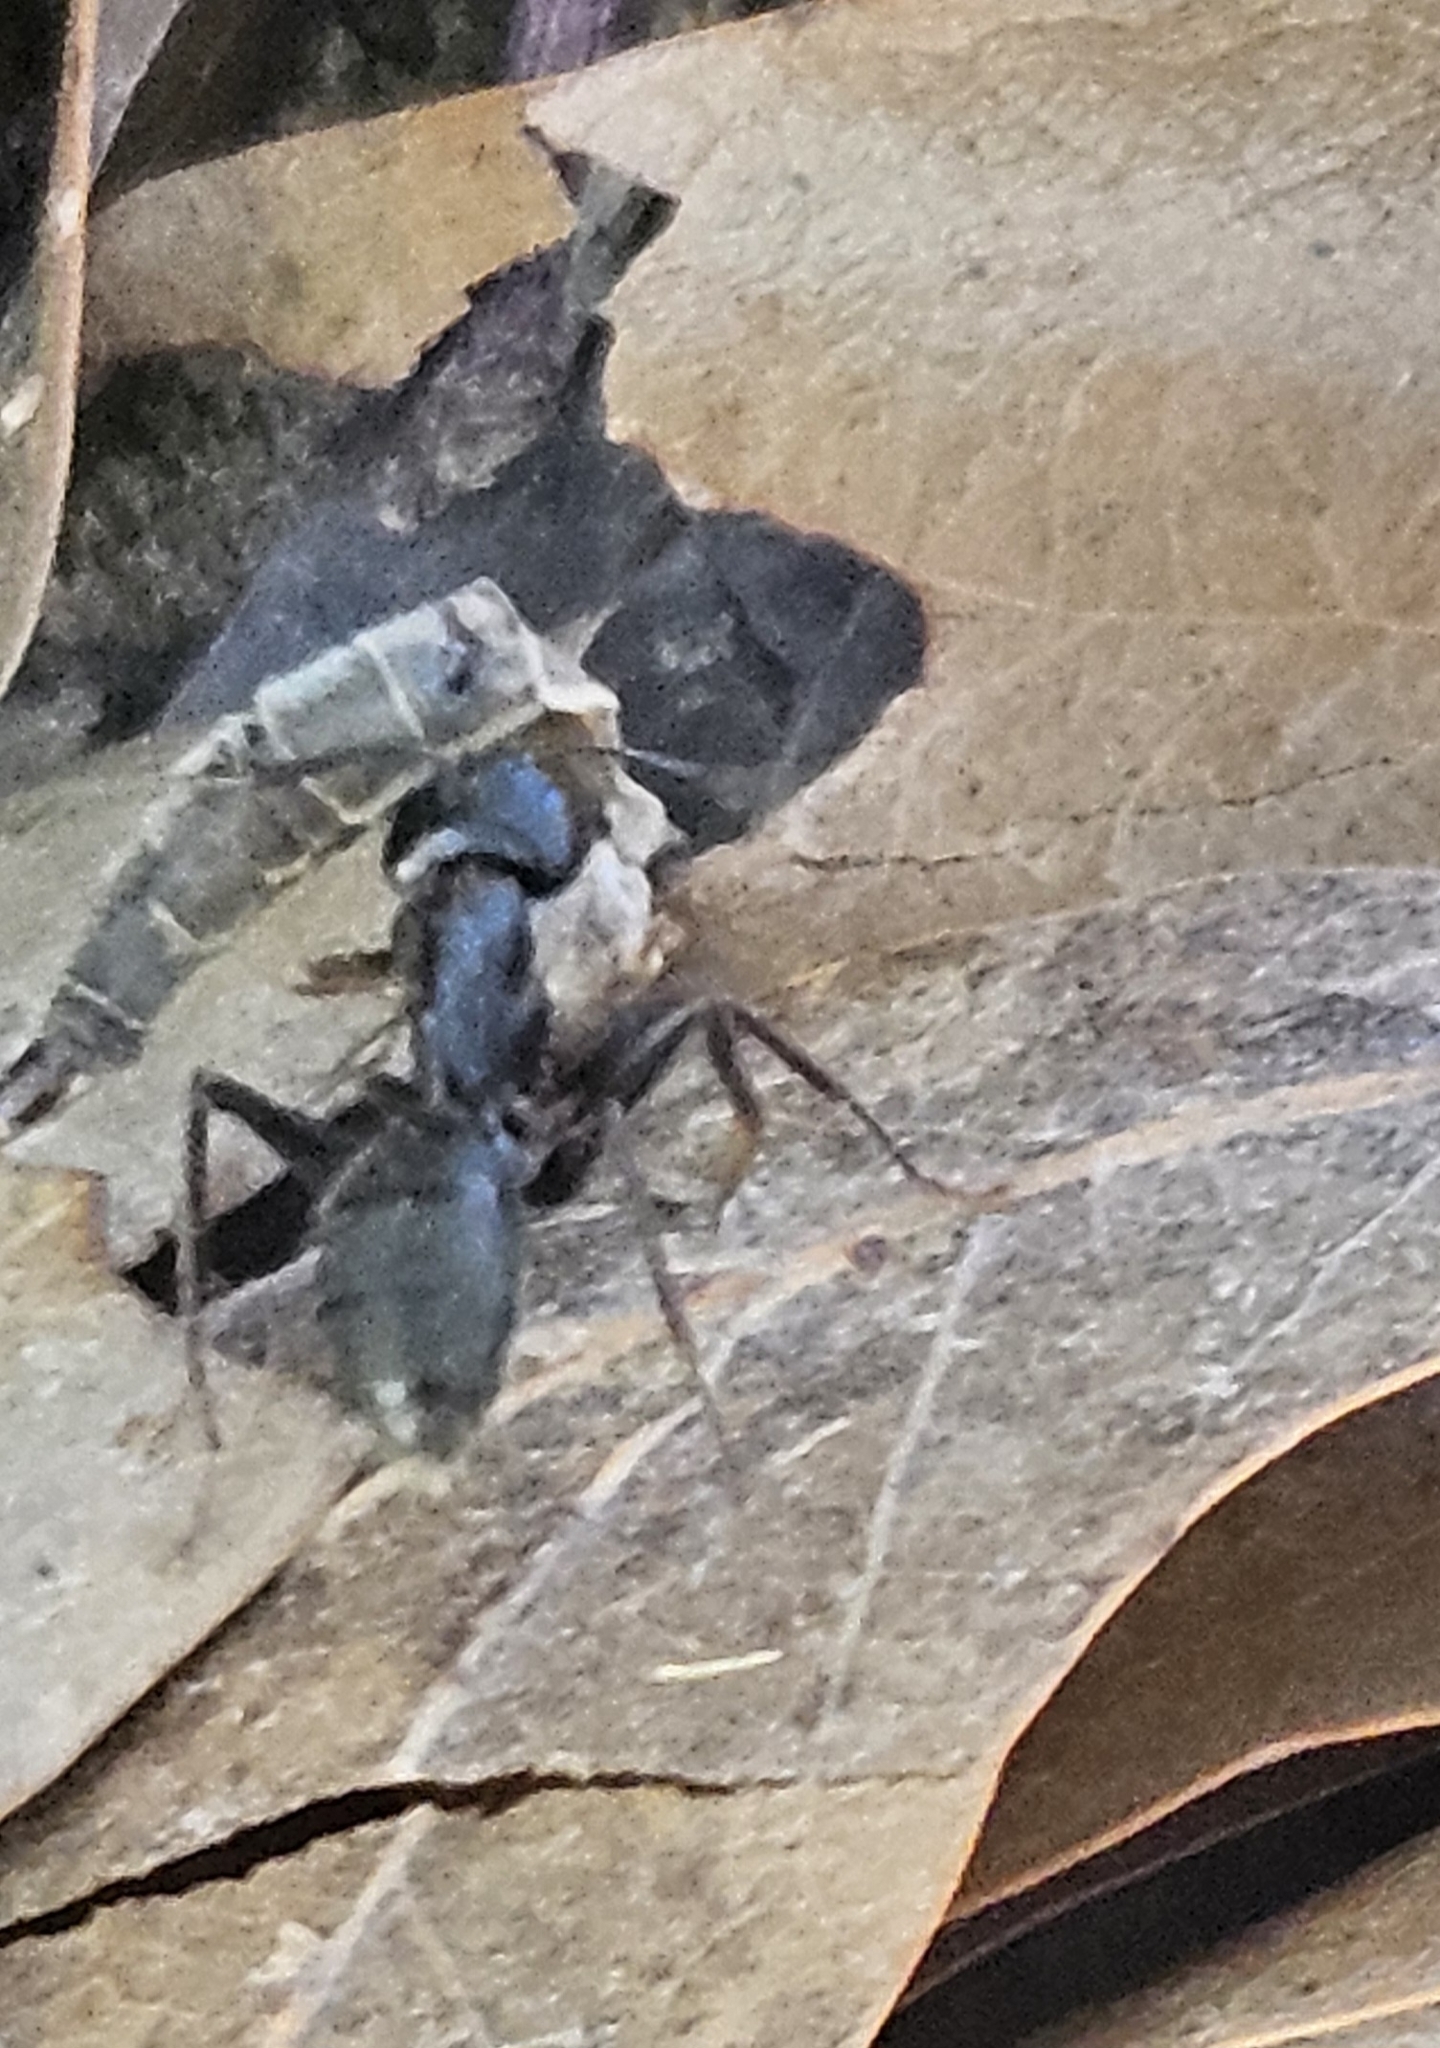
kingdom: Animalia
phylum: Arthropoda
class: Insecta
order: Hymenoptera
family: Formicidae
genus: Camponotus
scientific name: Camponotus pennsylvanicus
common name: Black carpenter ant
